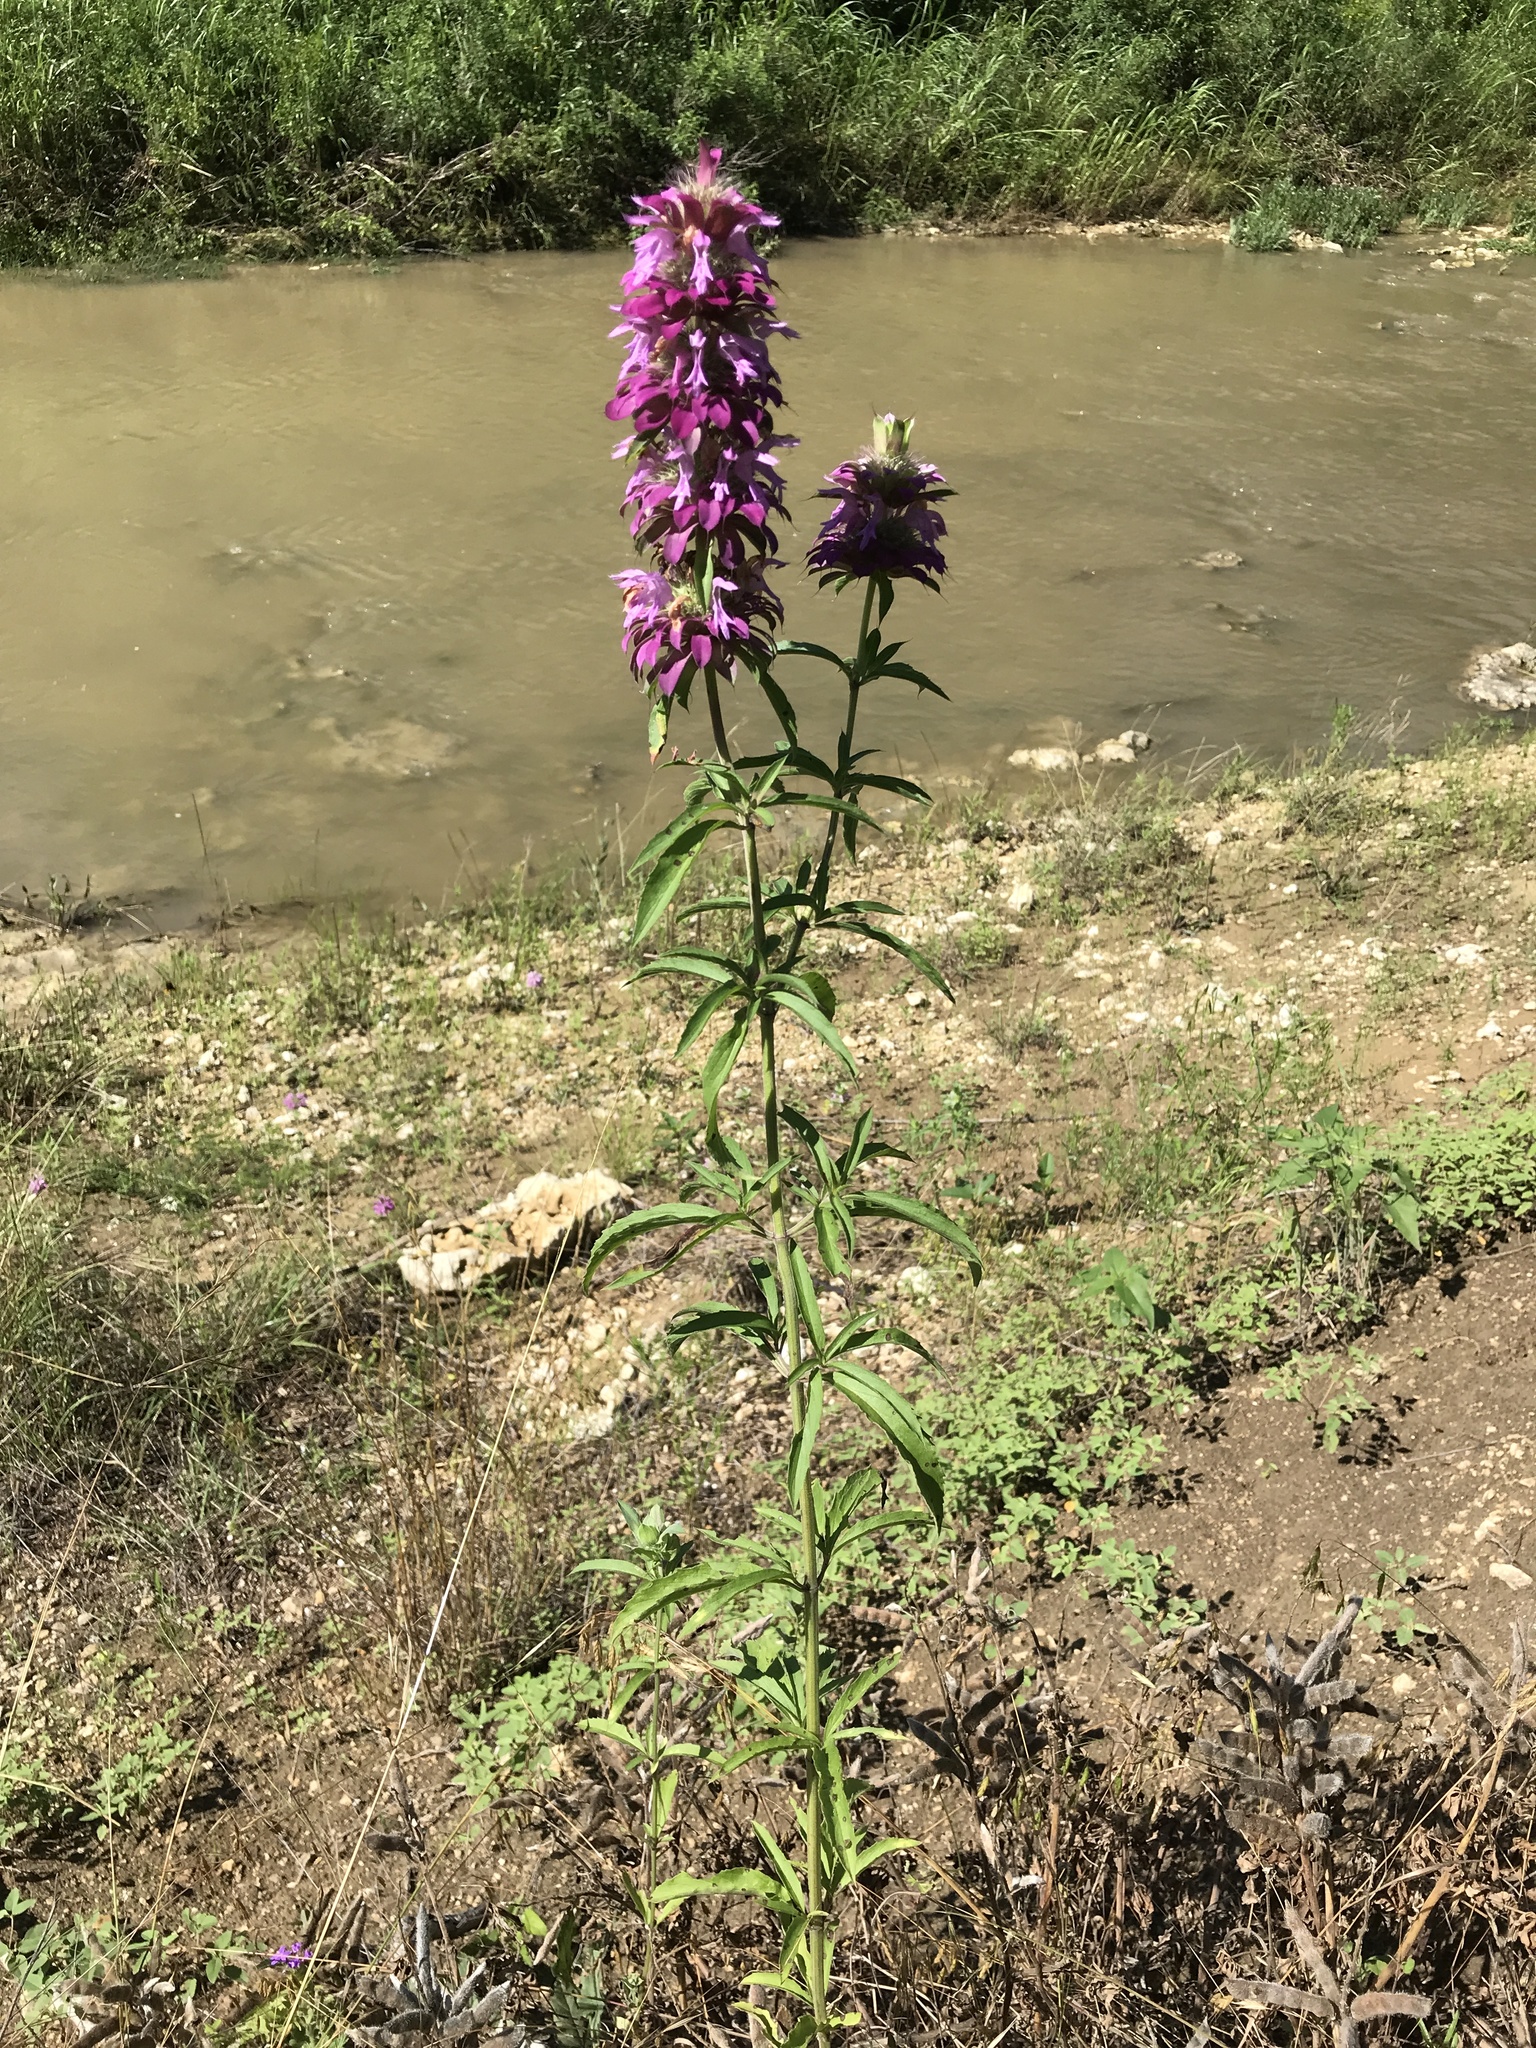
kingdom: Plantae
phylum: Tracheophyta
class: Magnoliopsida
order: Lamiales
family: Lamiaceae
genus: Monarda
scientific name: Monarda citriodora
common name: Lemon beebalm
